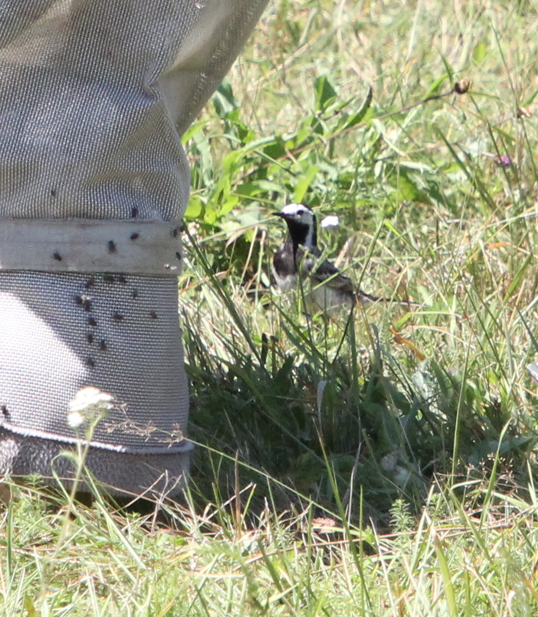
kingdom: Animalia
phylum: Chordata
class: Aves
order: Passeriformes
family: Motacillidae
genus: Motacilla
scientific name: Motacilla alba
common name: White wagtail
